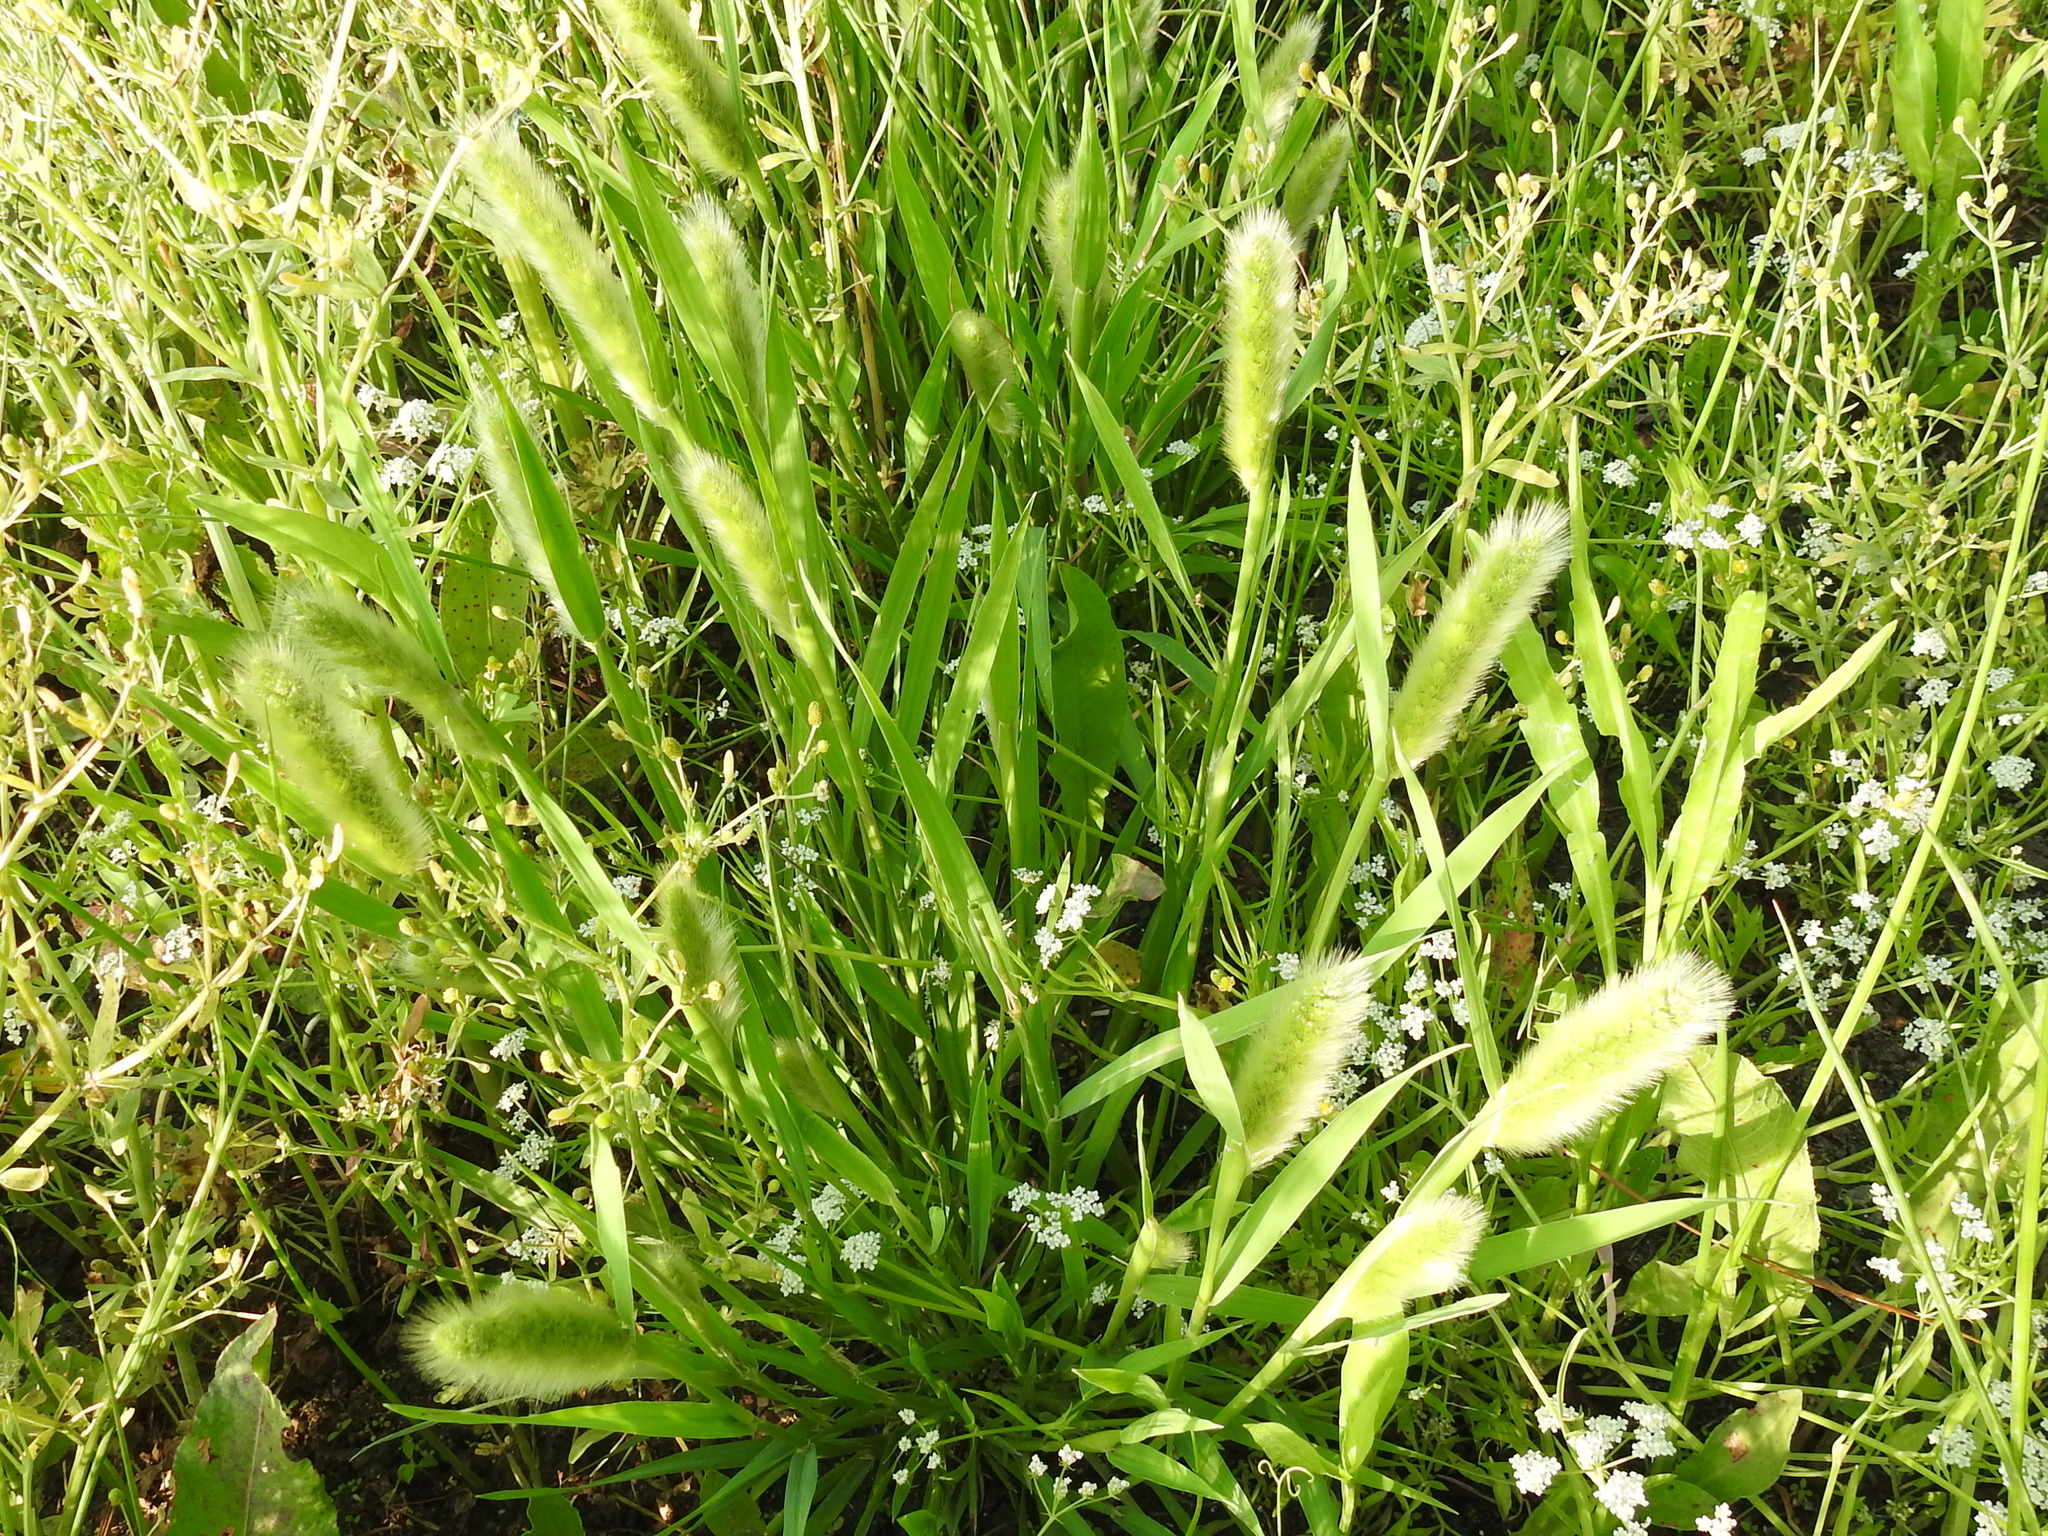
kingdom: Plantae
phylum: Tracheophyta
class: Liliopsida
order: Poales
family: Poaceae
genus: Polypogon
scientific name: Polypogon monspeliensis
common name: Annual rabbitsfoot grass
